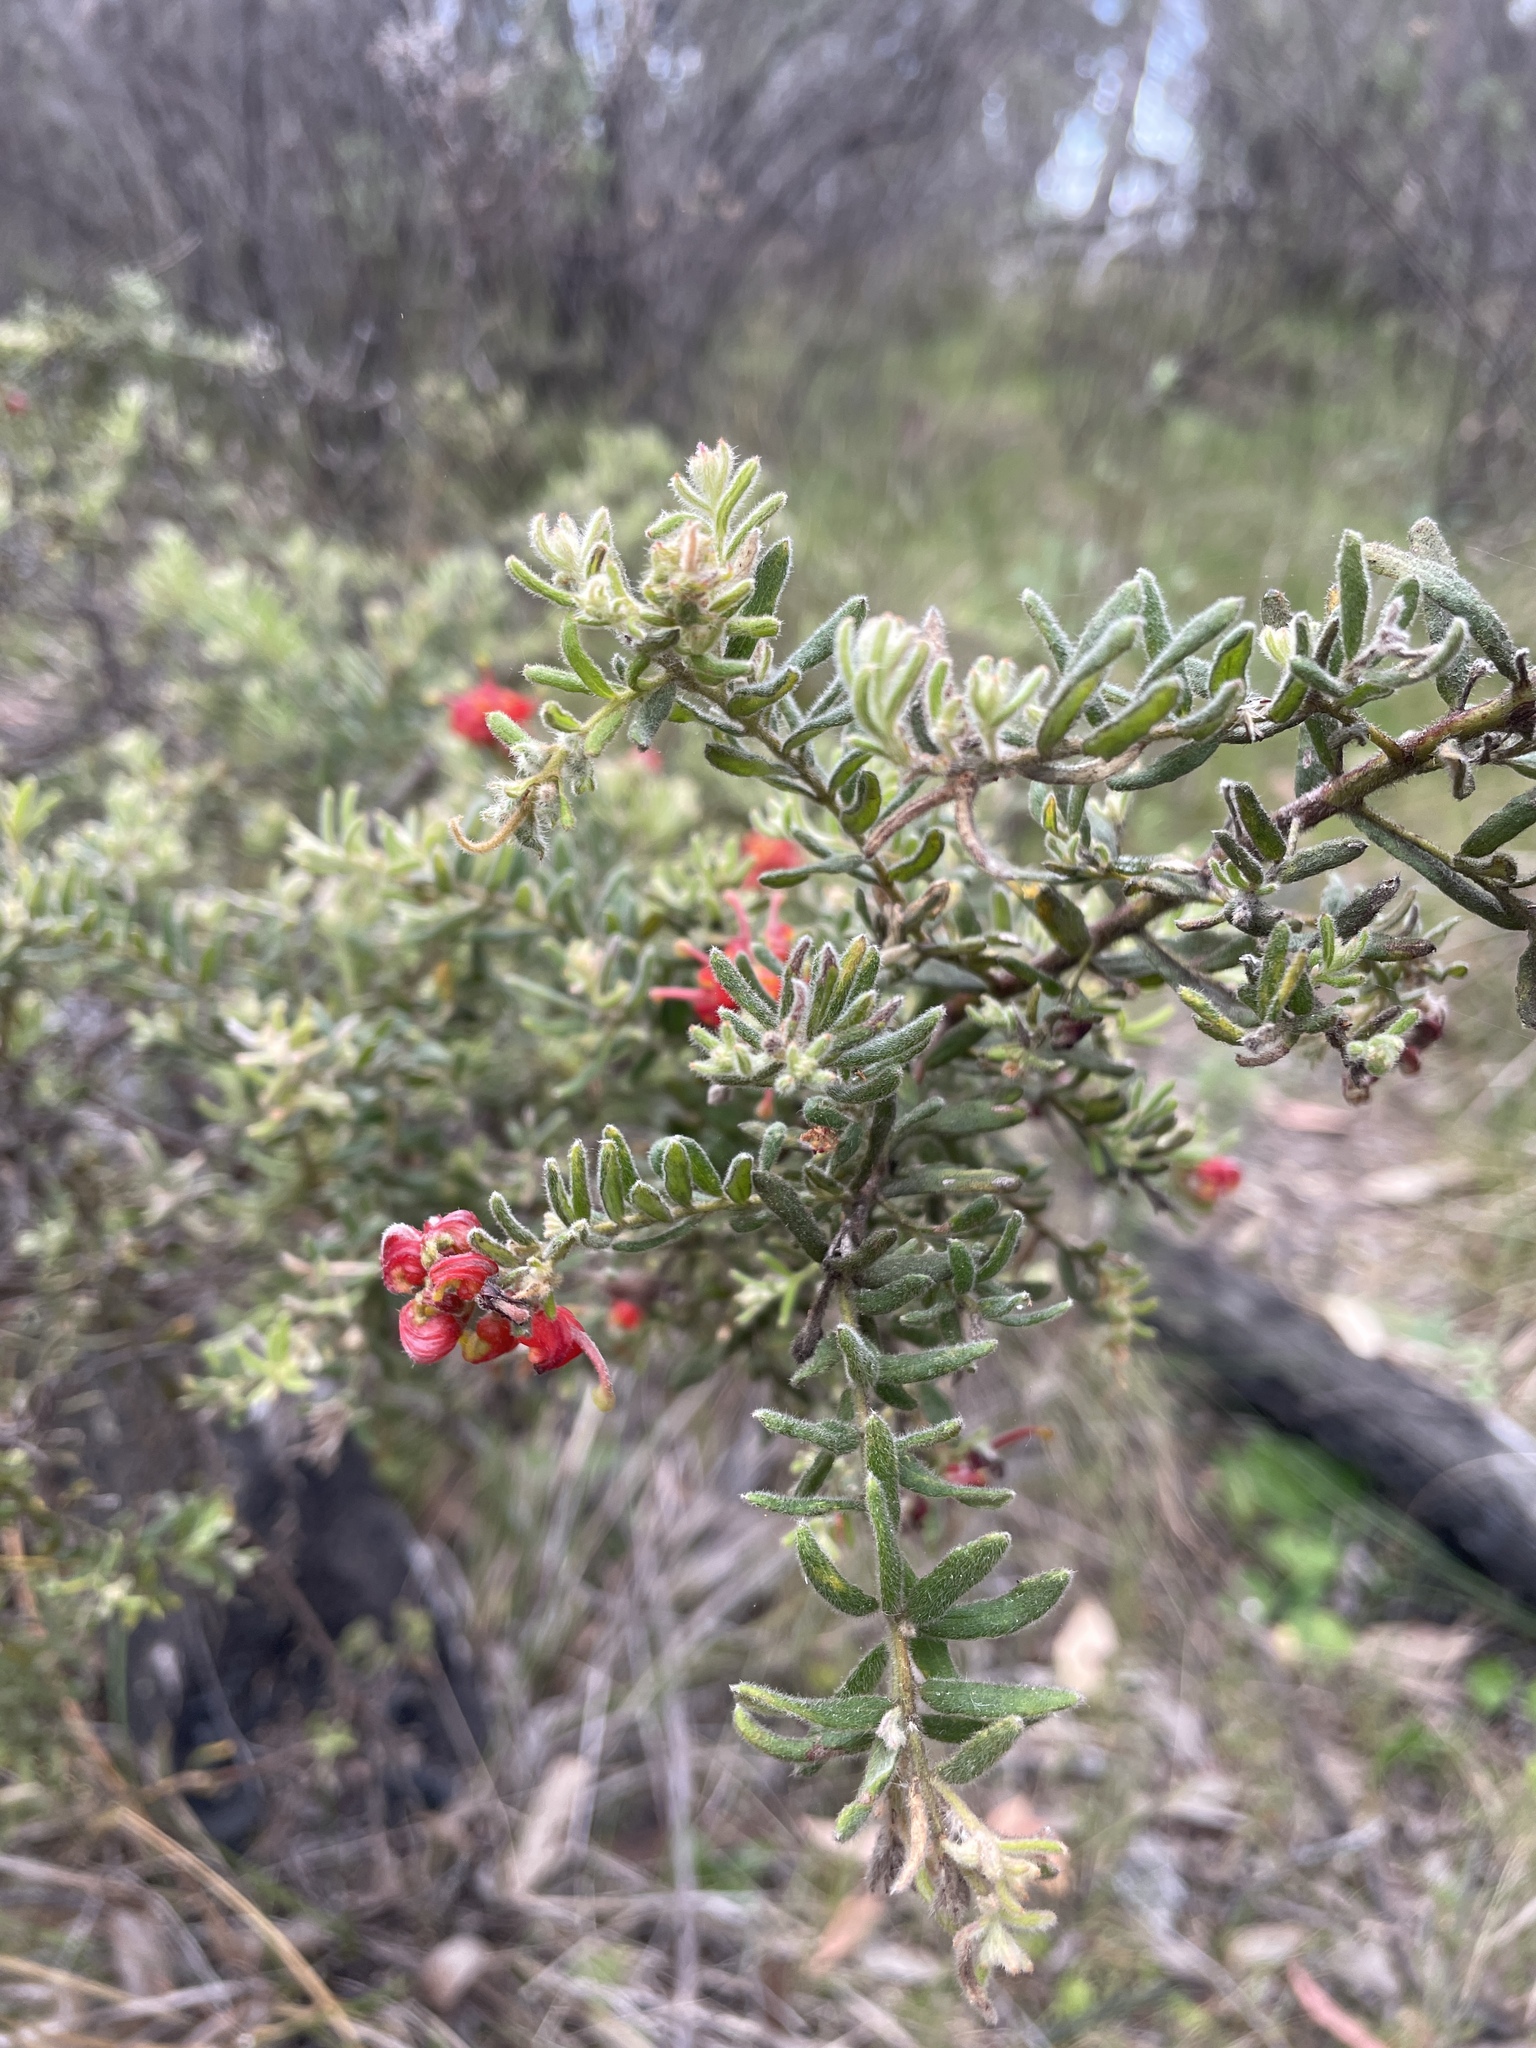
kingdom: Plantae
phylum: Tracheophyta
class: Magnoliopsida
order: Proteales
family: Proteaceae
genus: Grevillea
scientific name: Grevillea lanigera
